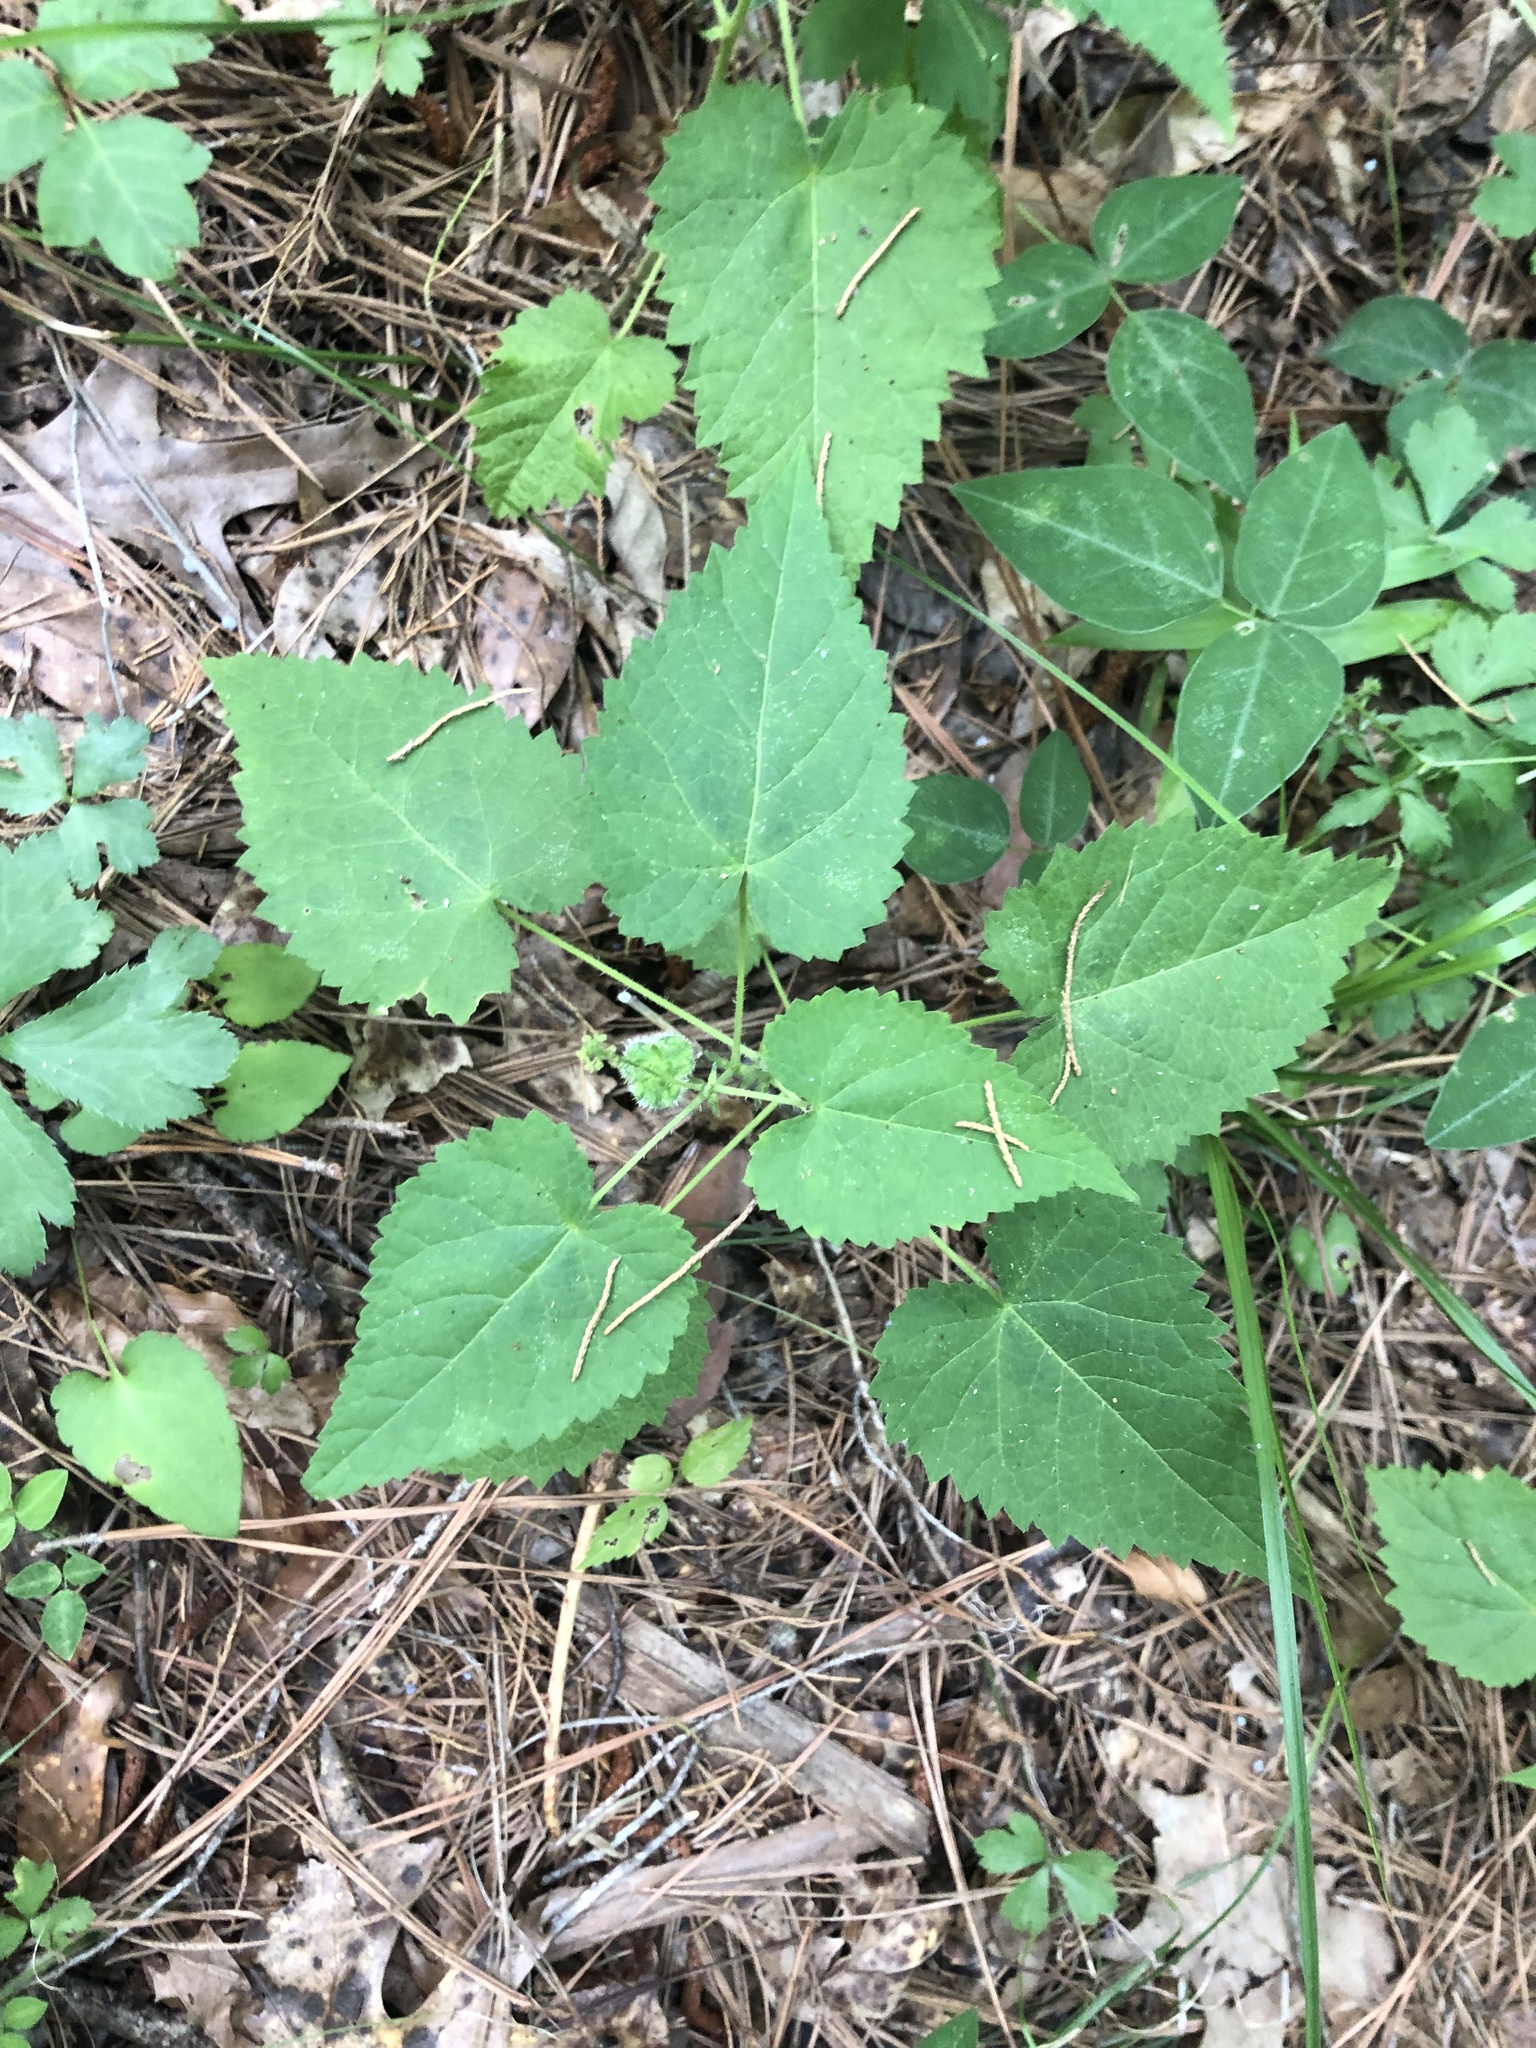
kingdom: Plantae
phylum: Tracheophyta
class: Magnoliopsida
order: Malpighiales
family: Euphorbiaceae
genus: Tragia
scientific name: Tragia cordata
